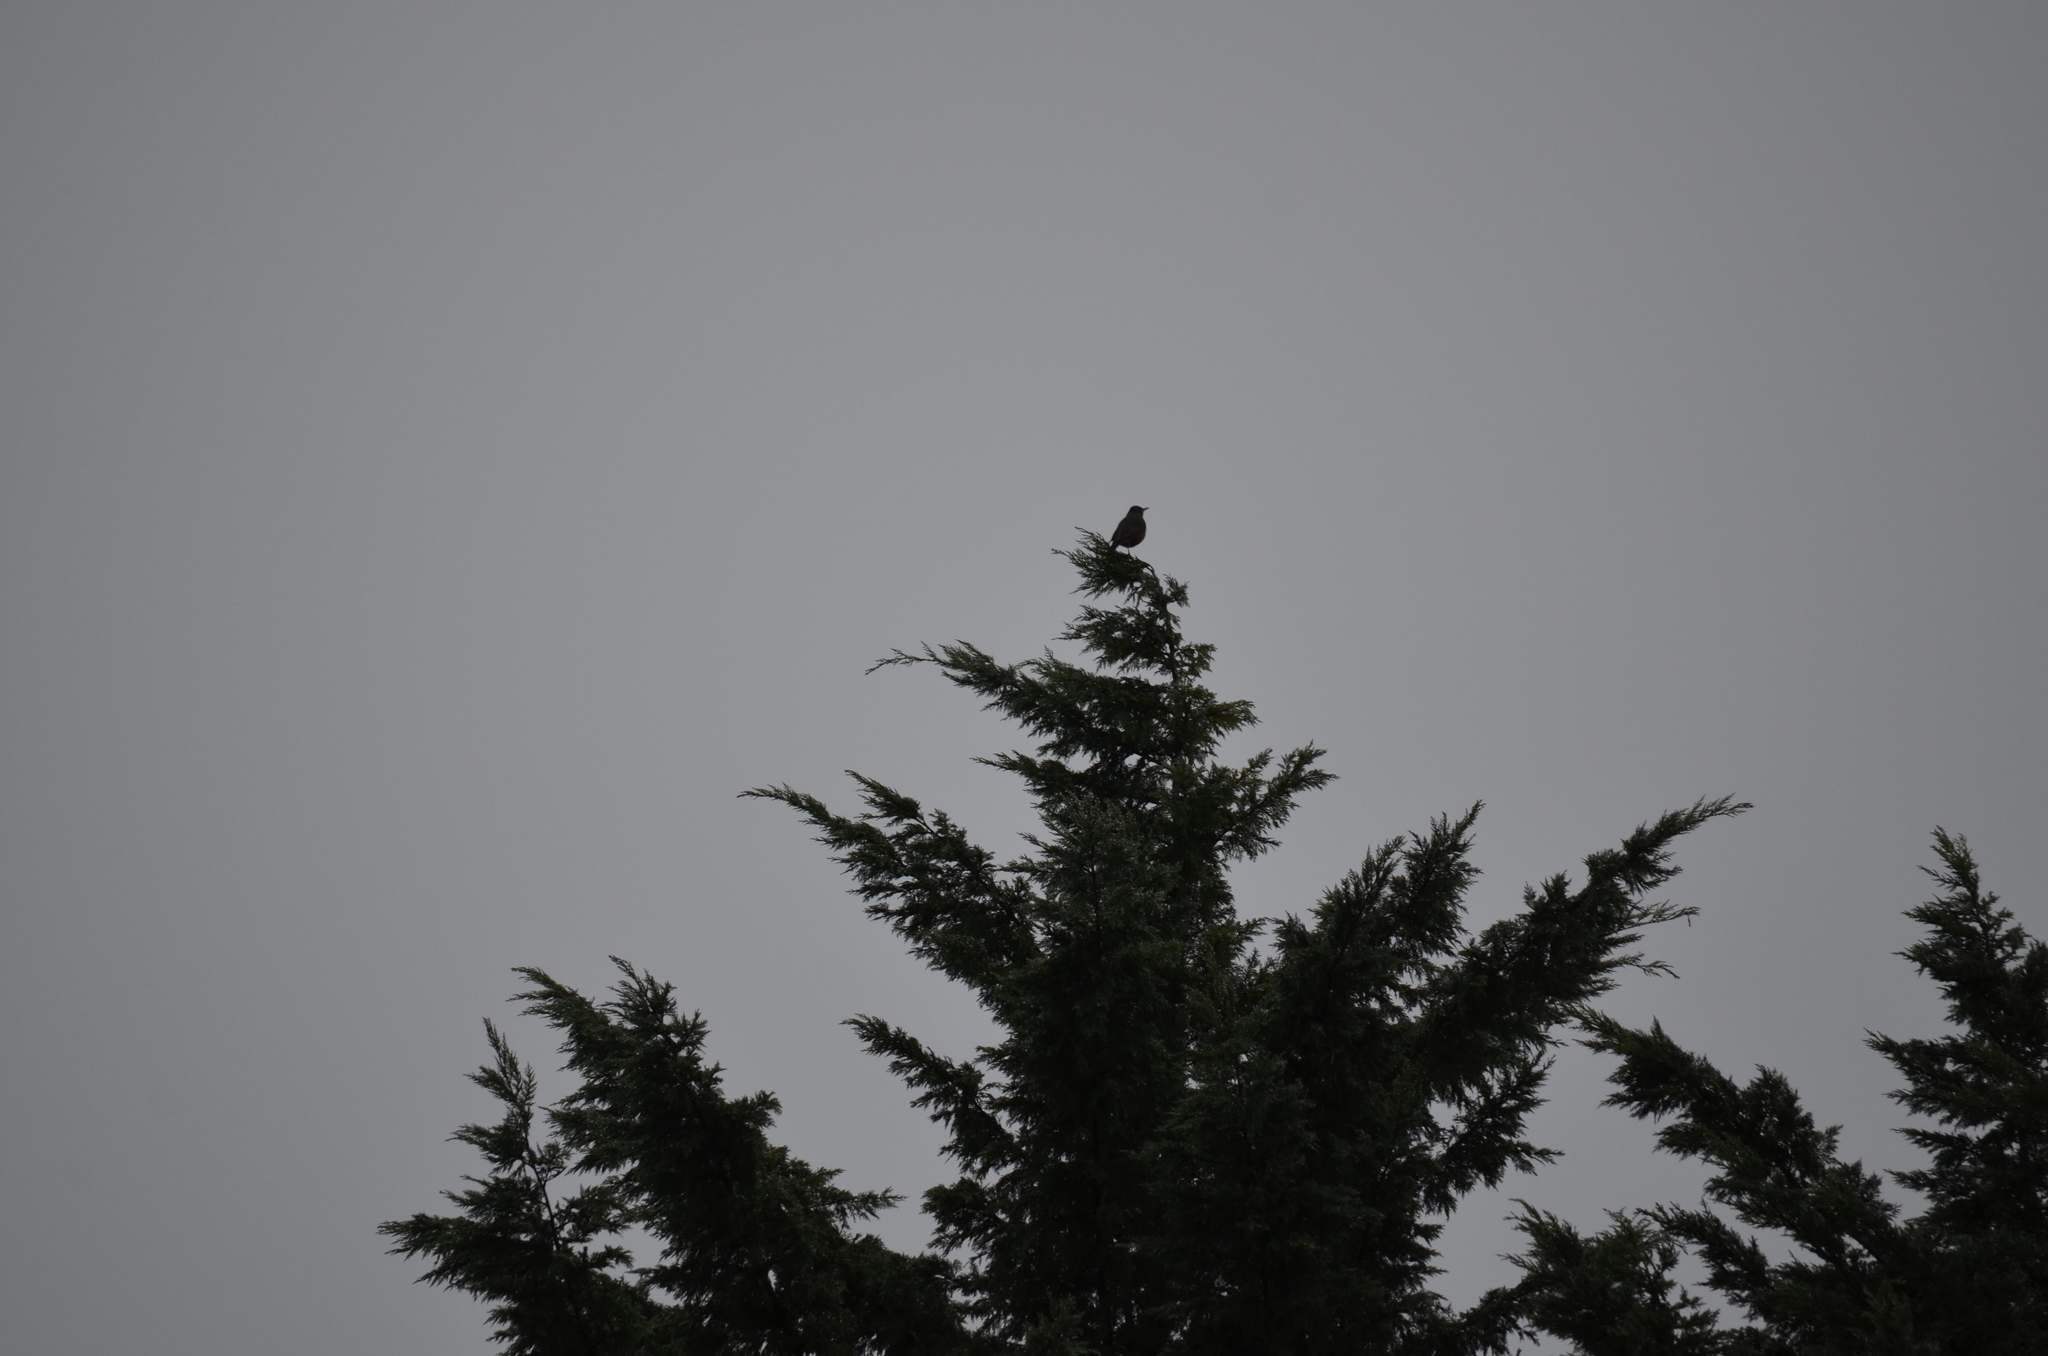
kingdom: Animalia
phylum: Chordata
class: Aves
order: Passeriformes
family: Turdidae
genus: Turdus
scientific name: Turdus migratorius
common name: American robin
